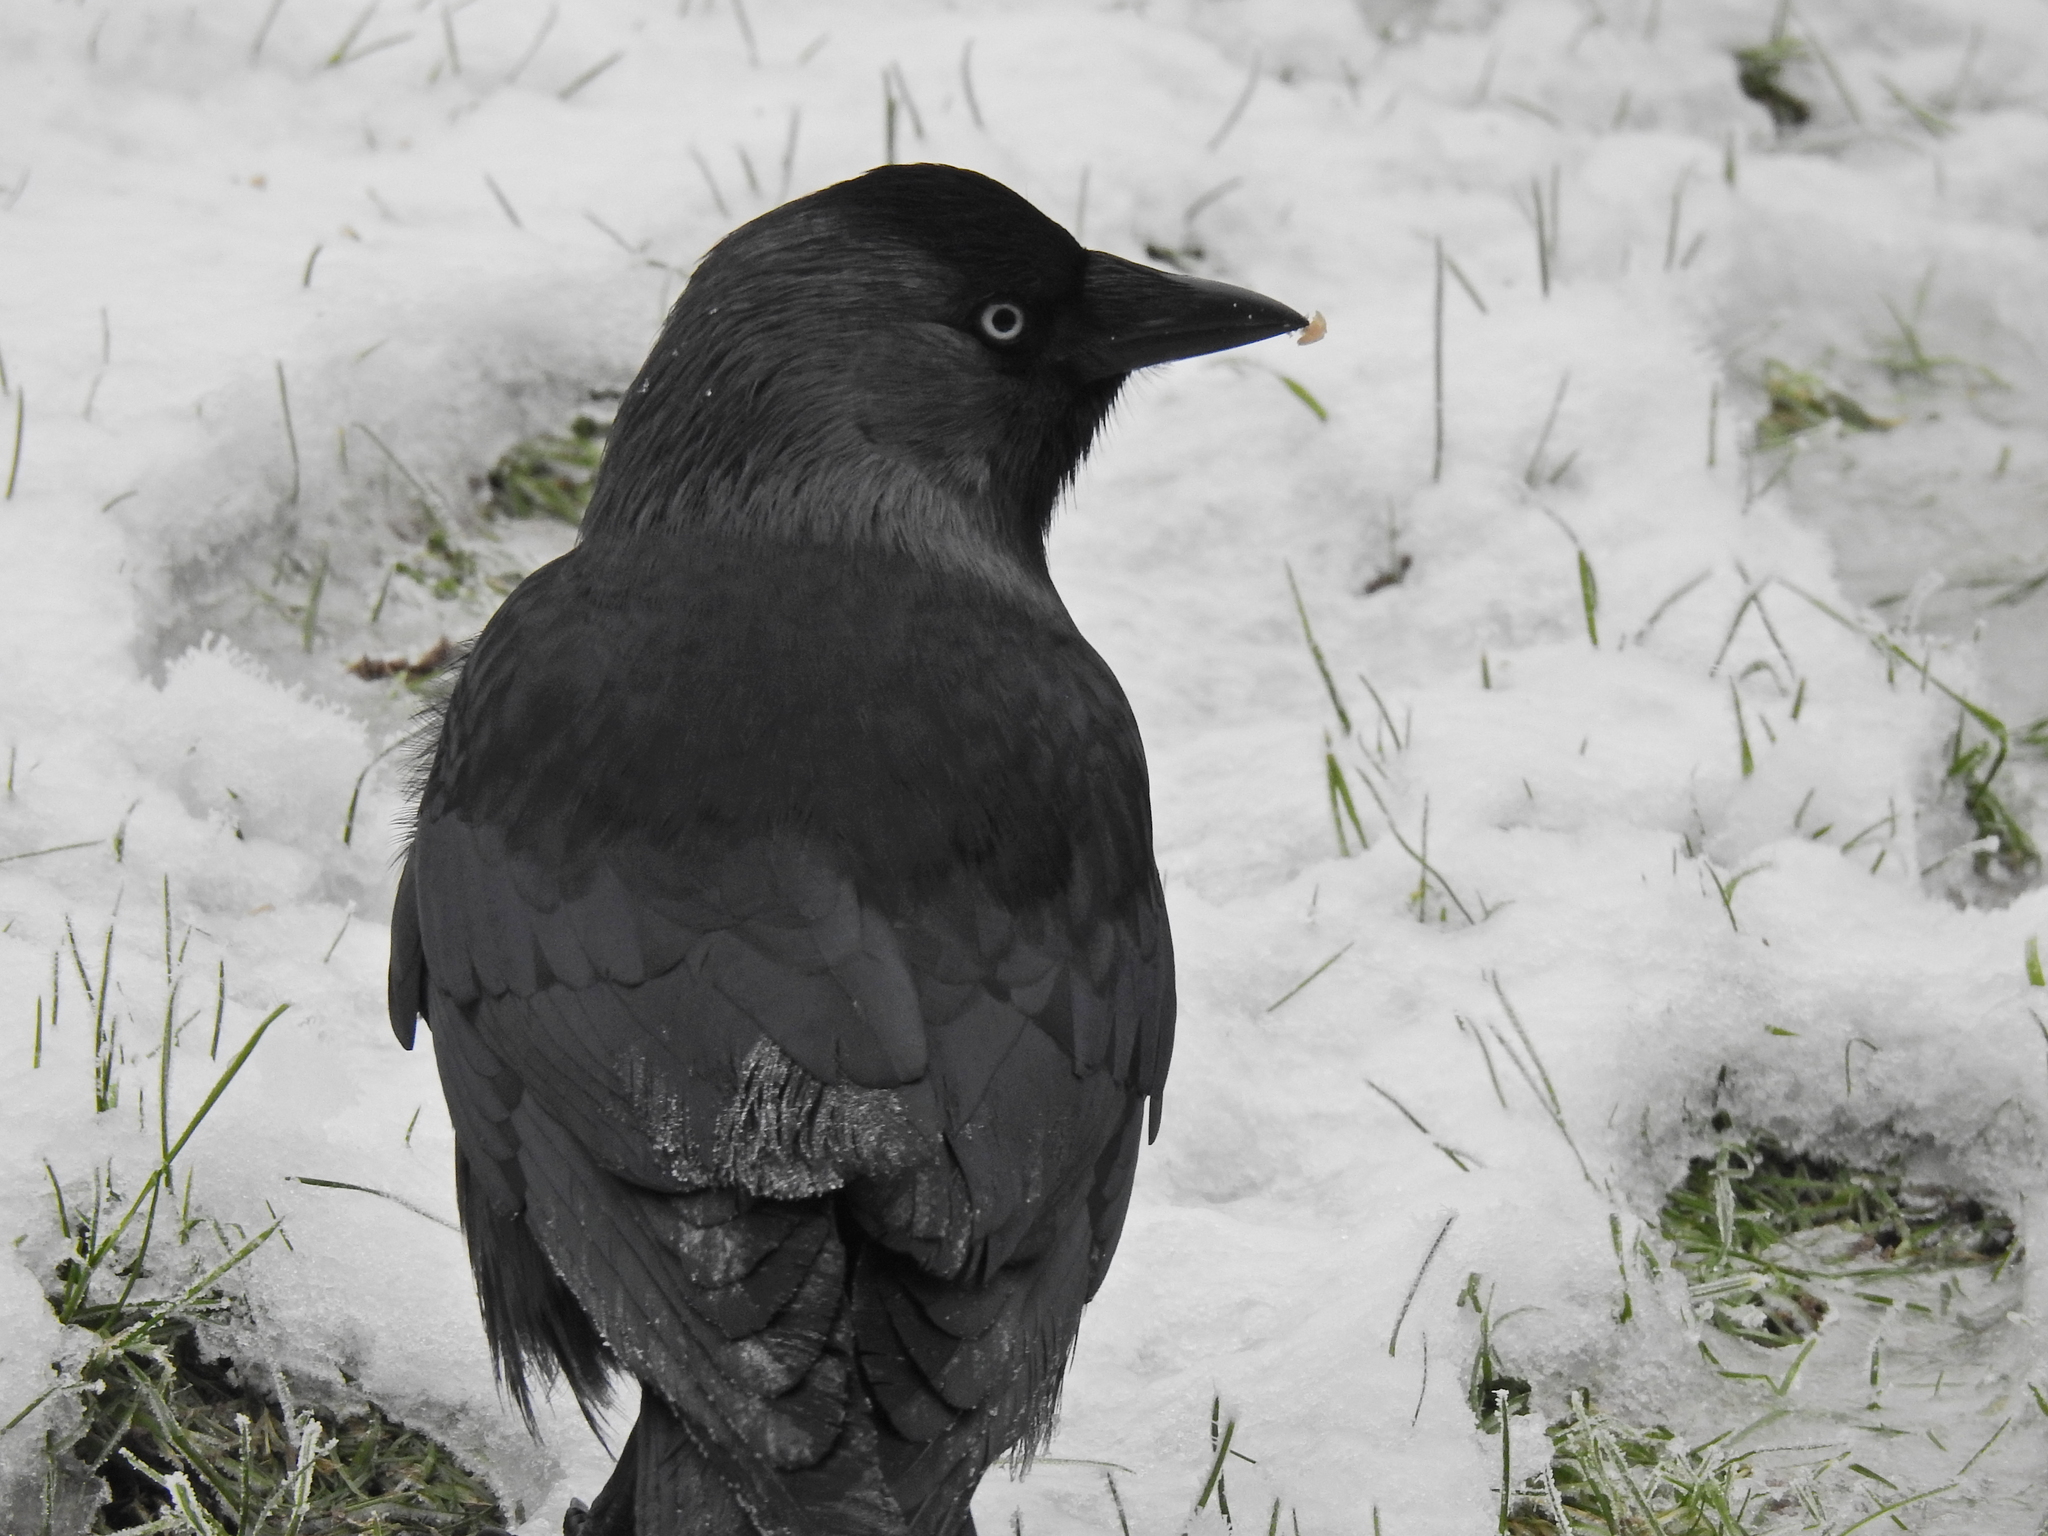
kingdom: Animalia
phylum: Chordata
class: Aves
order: Passeriformes
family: Corvidae
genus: Coloeus
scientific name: Coloeus monedula
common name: Western jackdaw
